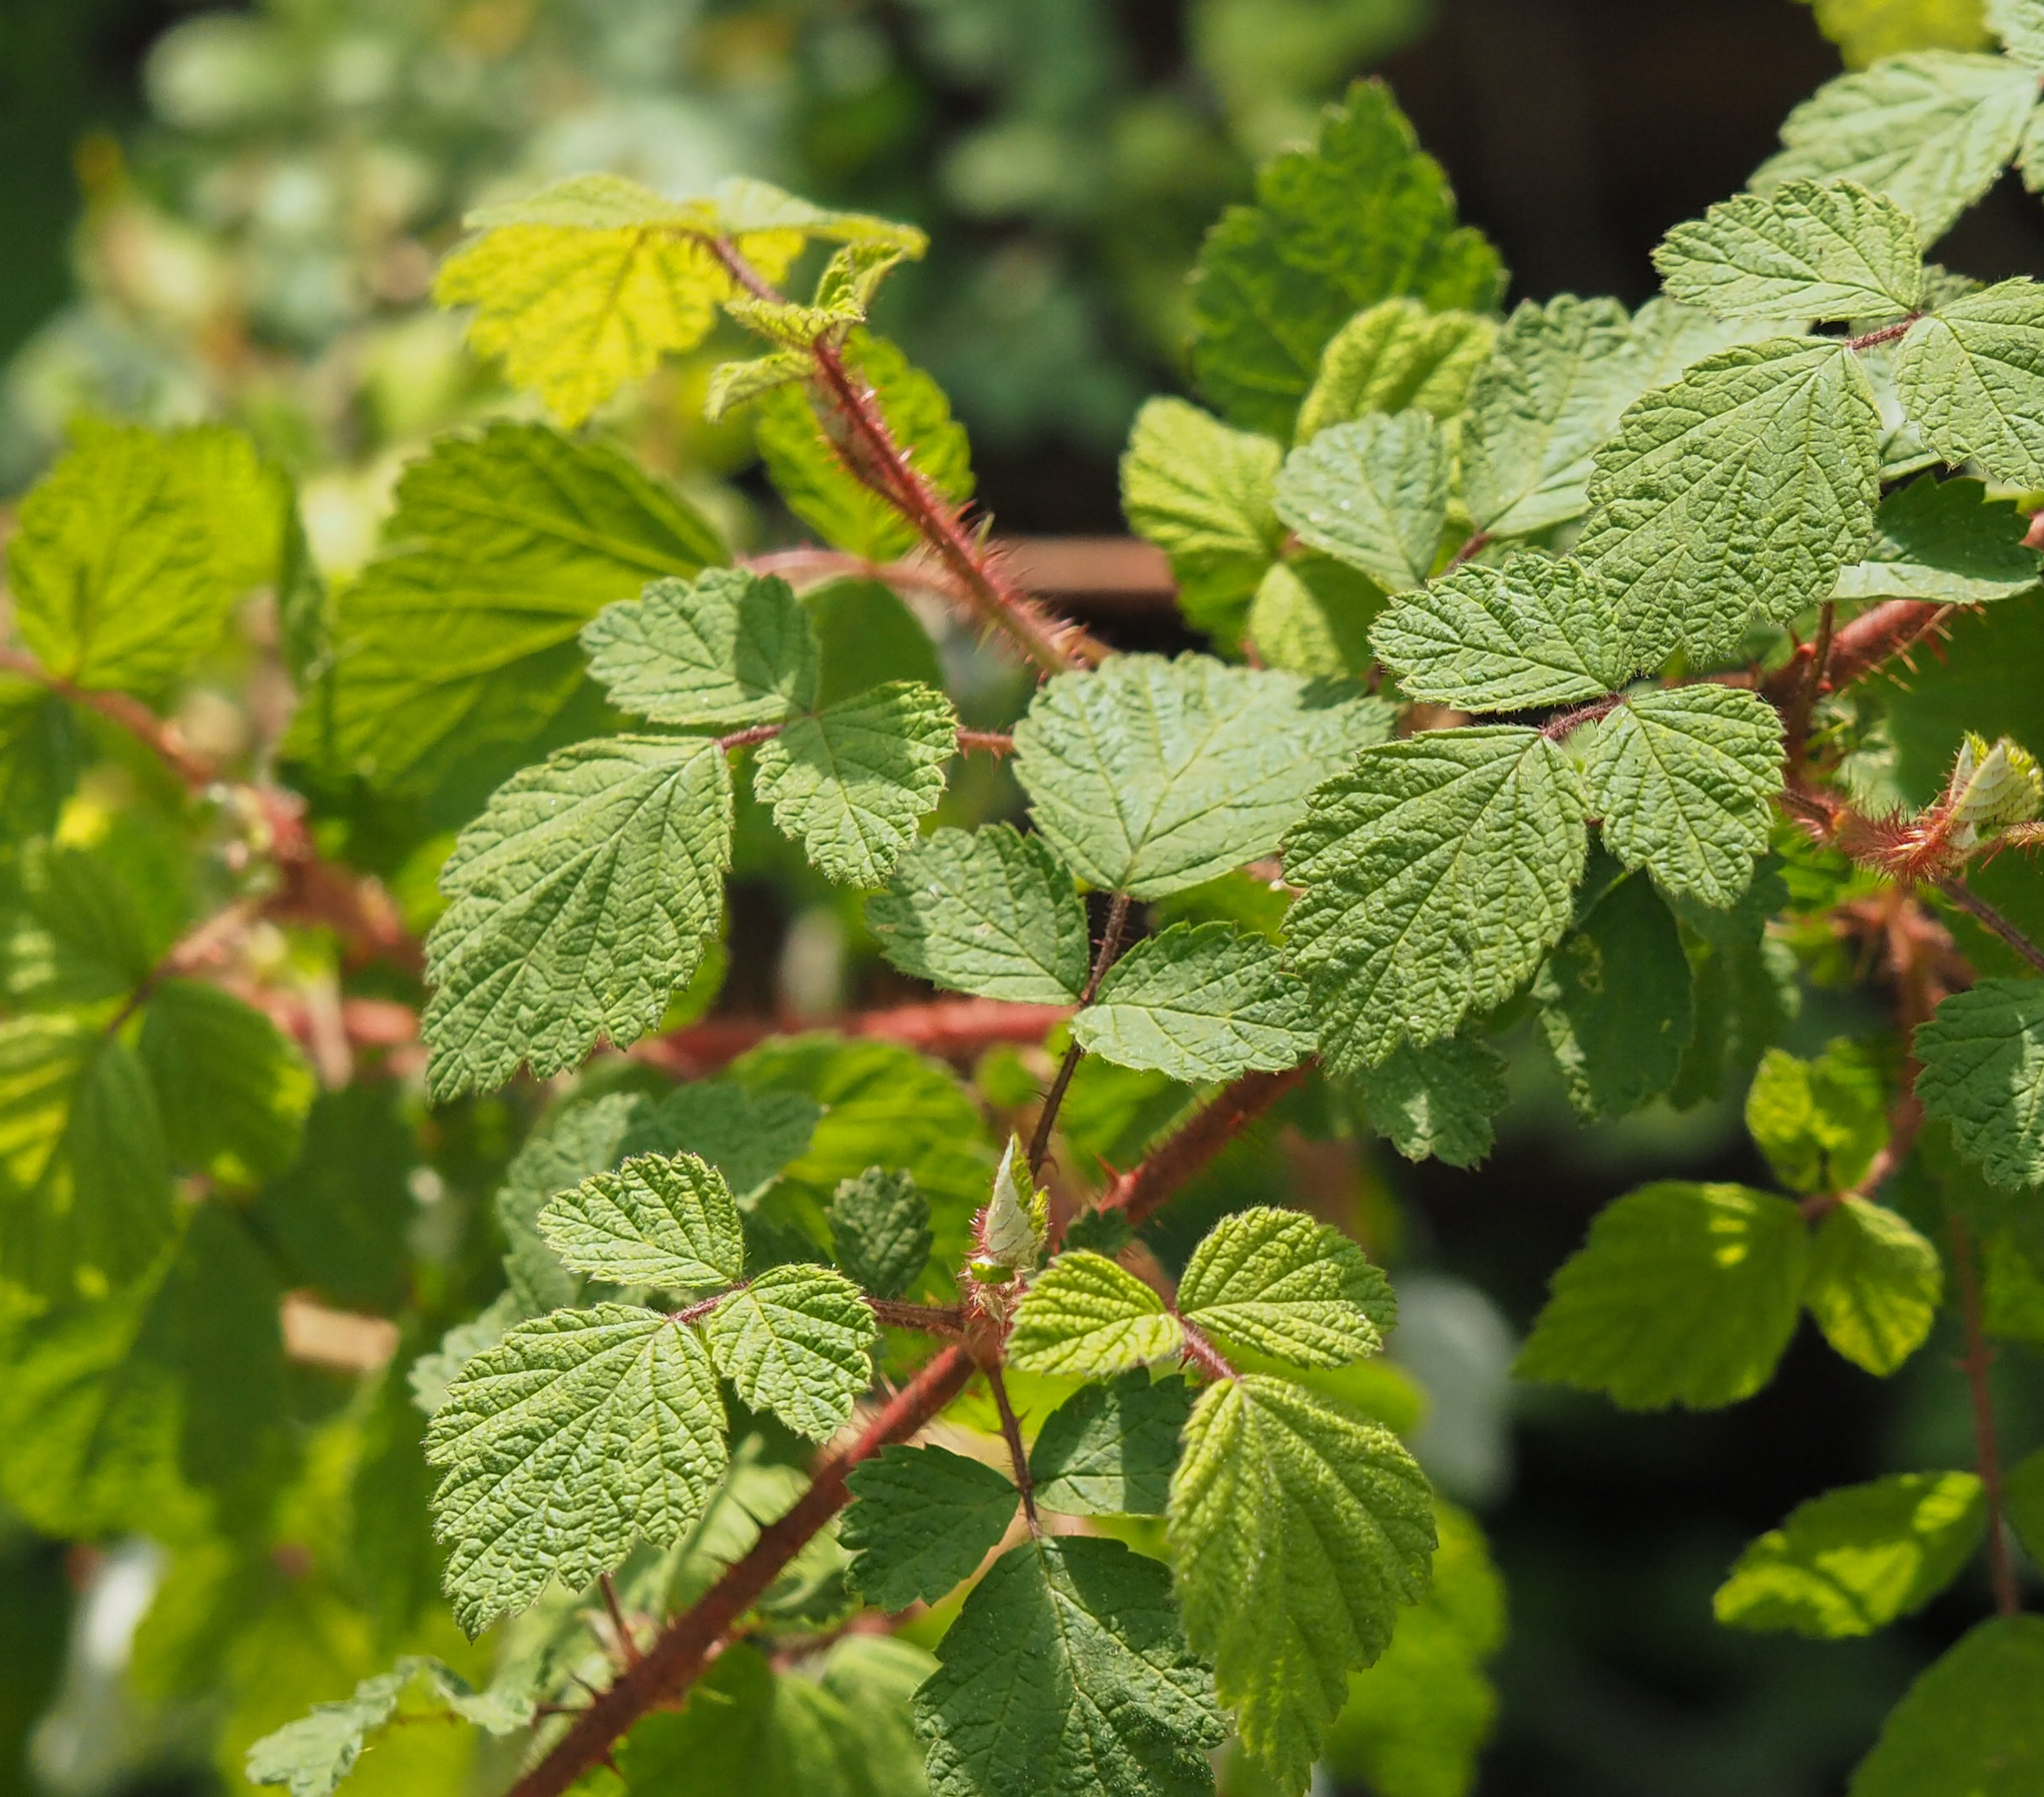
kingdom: Plantae
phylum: Tracheophyta
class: Magnoliopsida
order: Rosales
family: Rosaceae
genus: Rubus
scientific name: Rubus phoenicolasius
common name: Japanese wineberry
